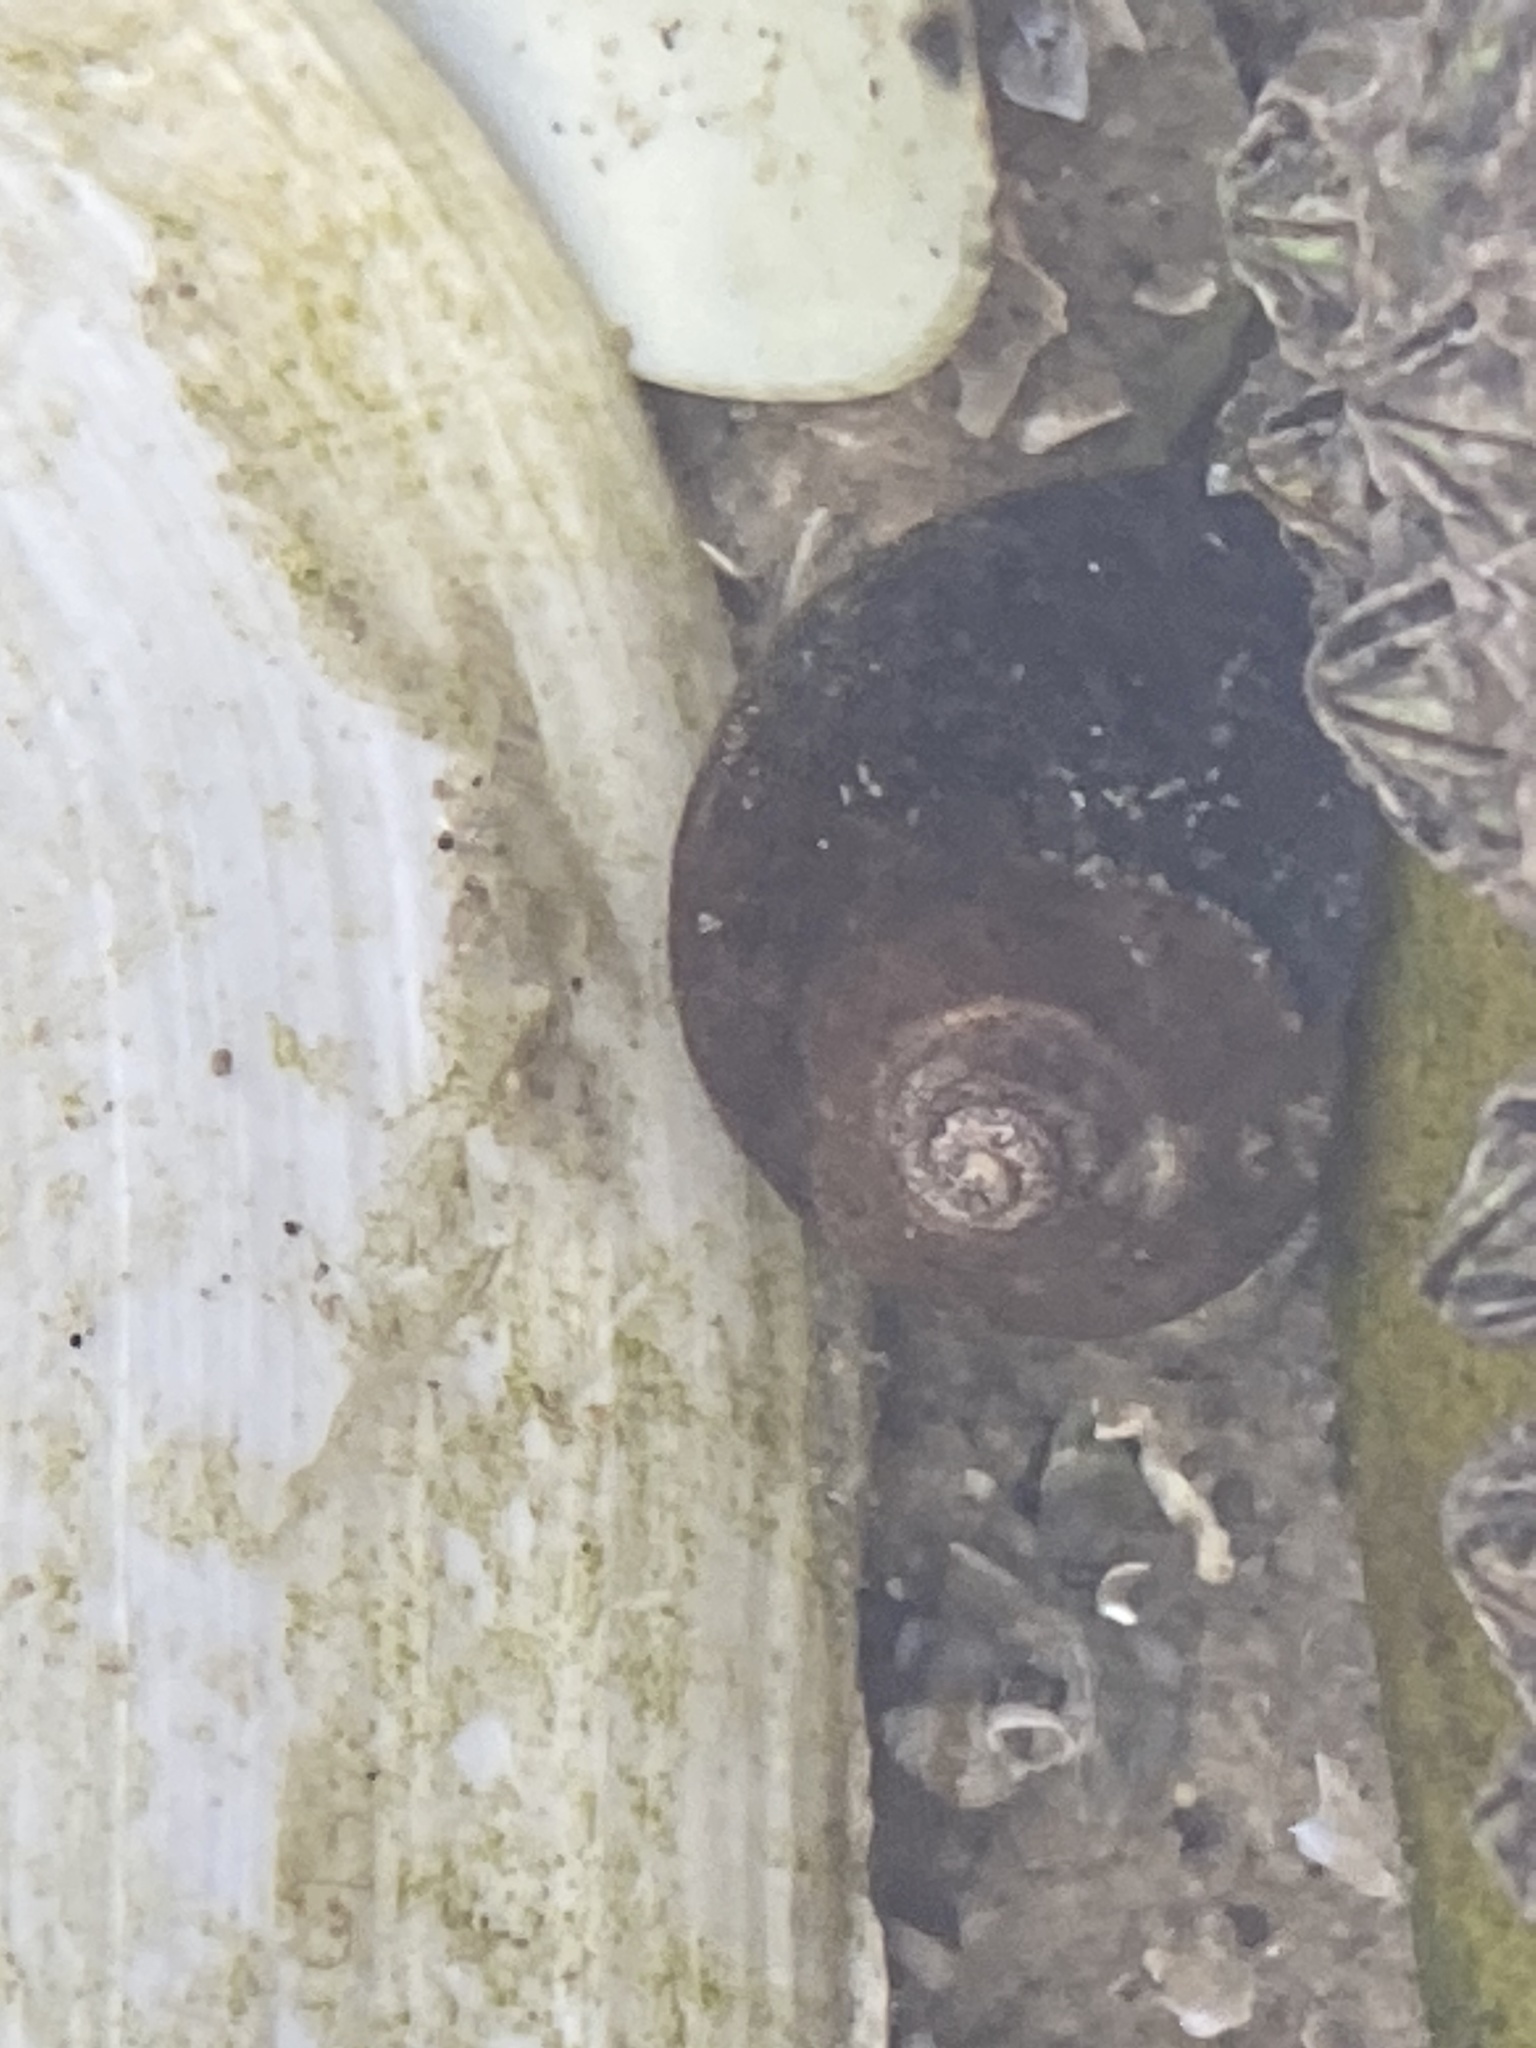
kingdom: Animalia
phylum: Mollusca
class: Gastropoda
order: Littorinimorpha
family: Littorinidae
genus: Littorina
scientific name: Littorina littorea
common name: Common periwinkle
